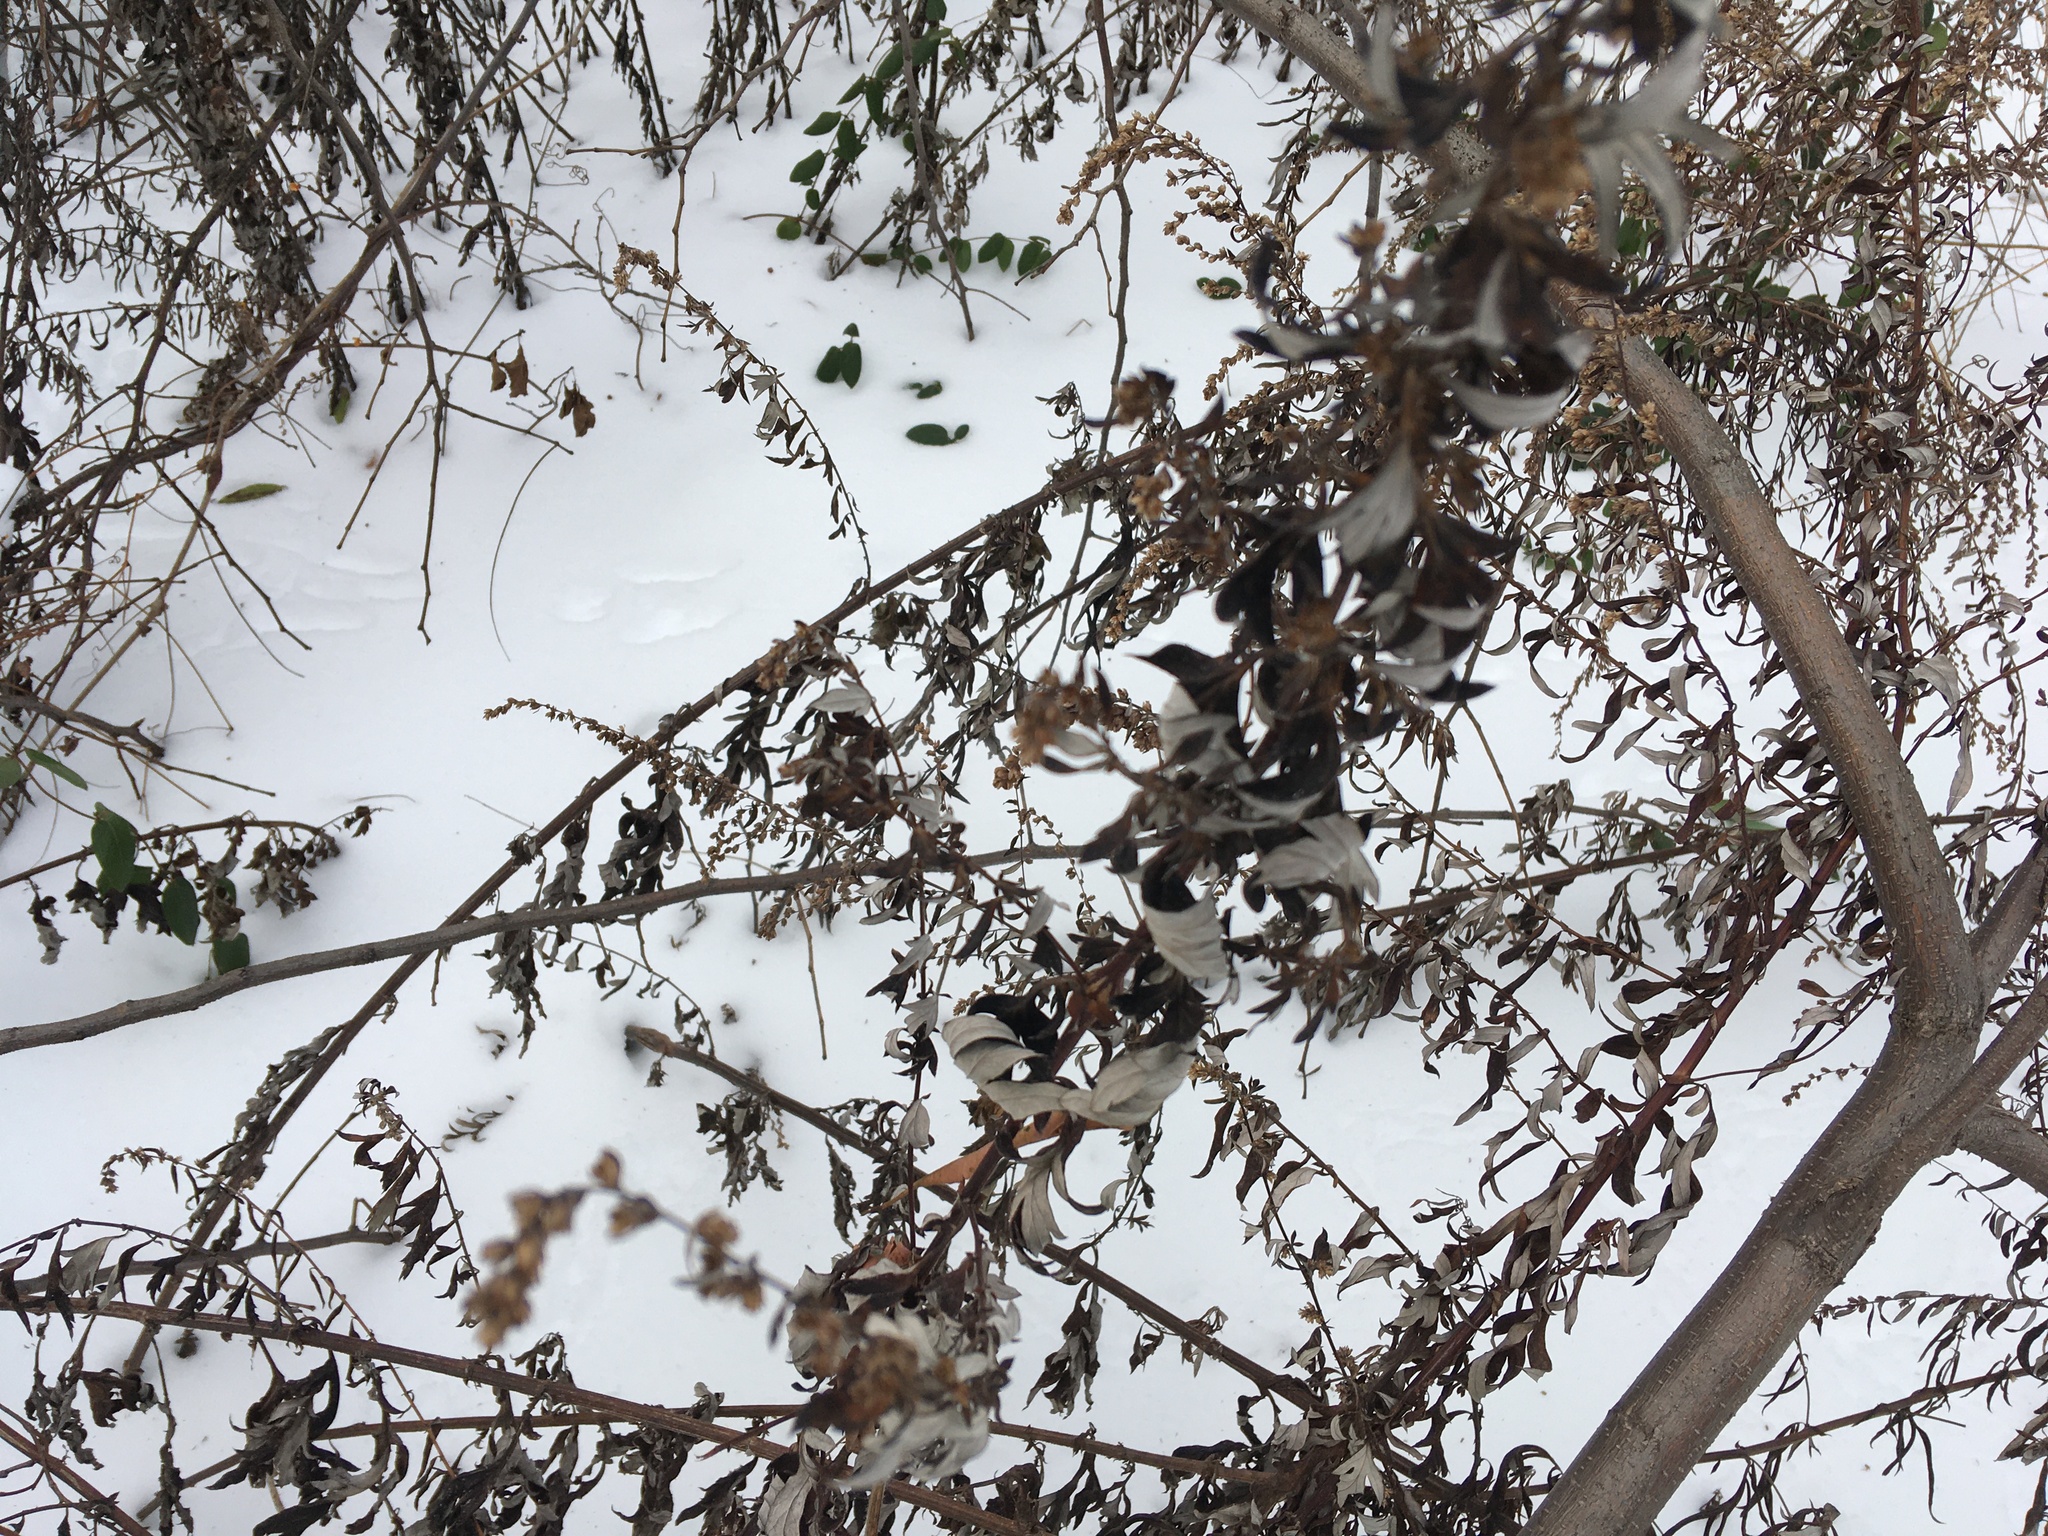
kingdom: Plantae
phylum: Tracheophyta
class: Magnoliopsida
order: Asterales
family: Asteraceae
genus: Artemisia
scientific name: Artemisia vulgaris
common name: Mugwort
